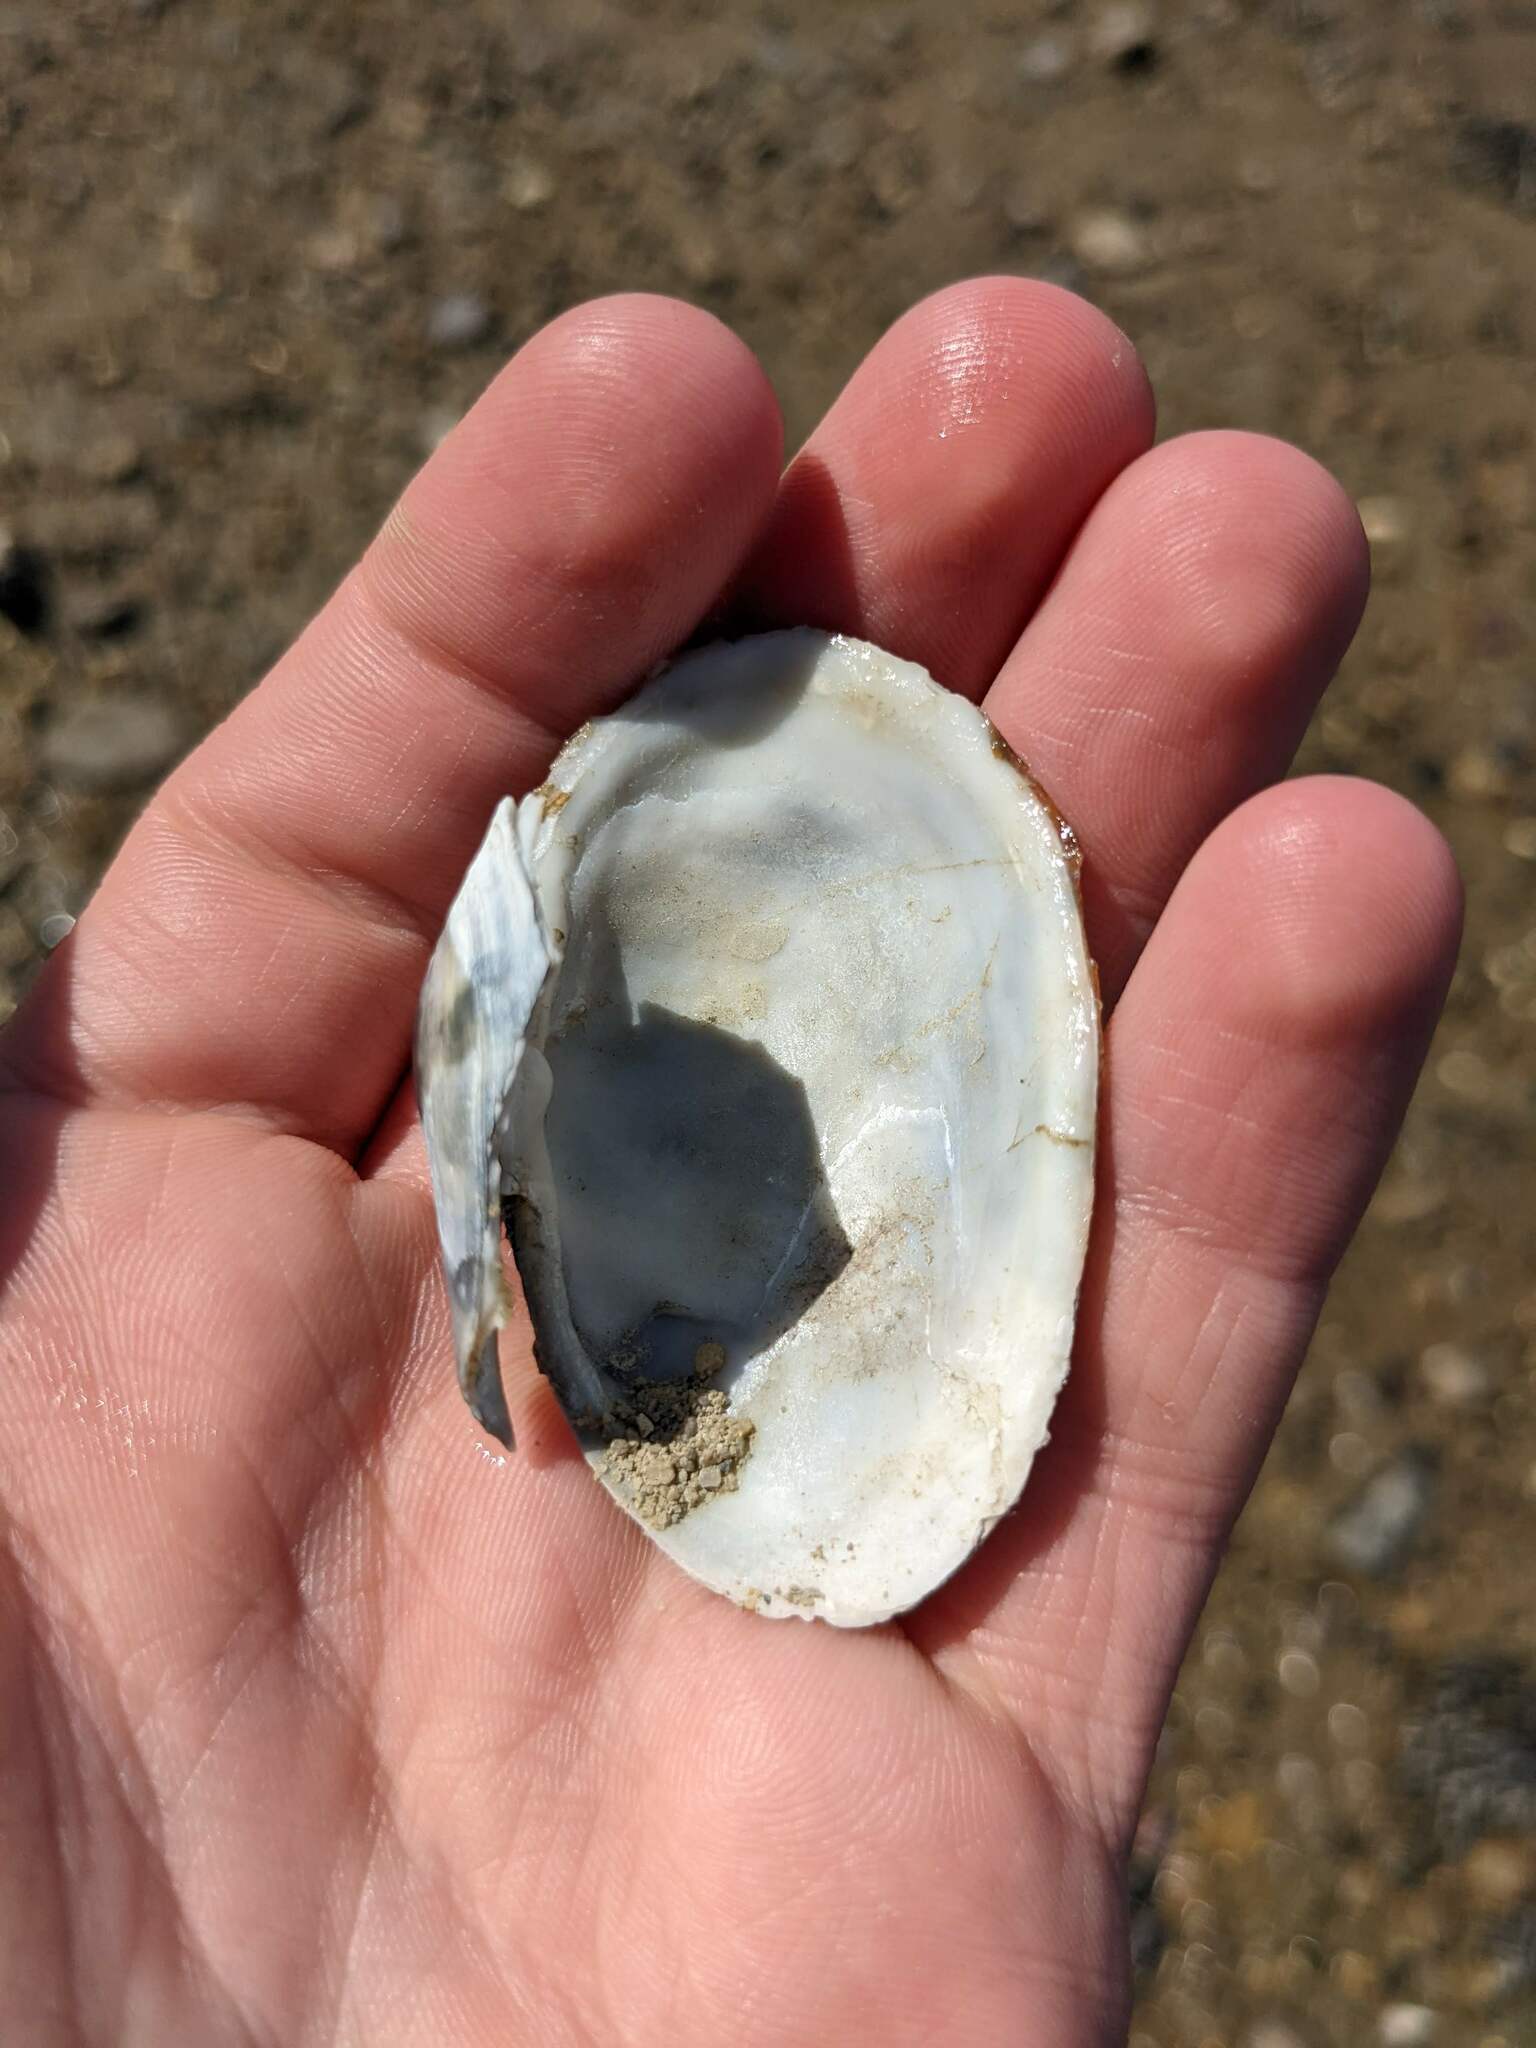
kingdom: Animalia
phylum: Mollusca
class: Bivalvia
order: Myida
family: Myidae
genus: Mya
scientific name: Mya arenaria
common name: Soft-shelled clam
